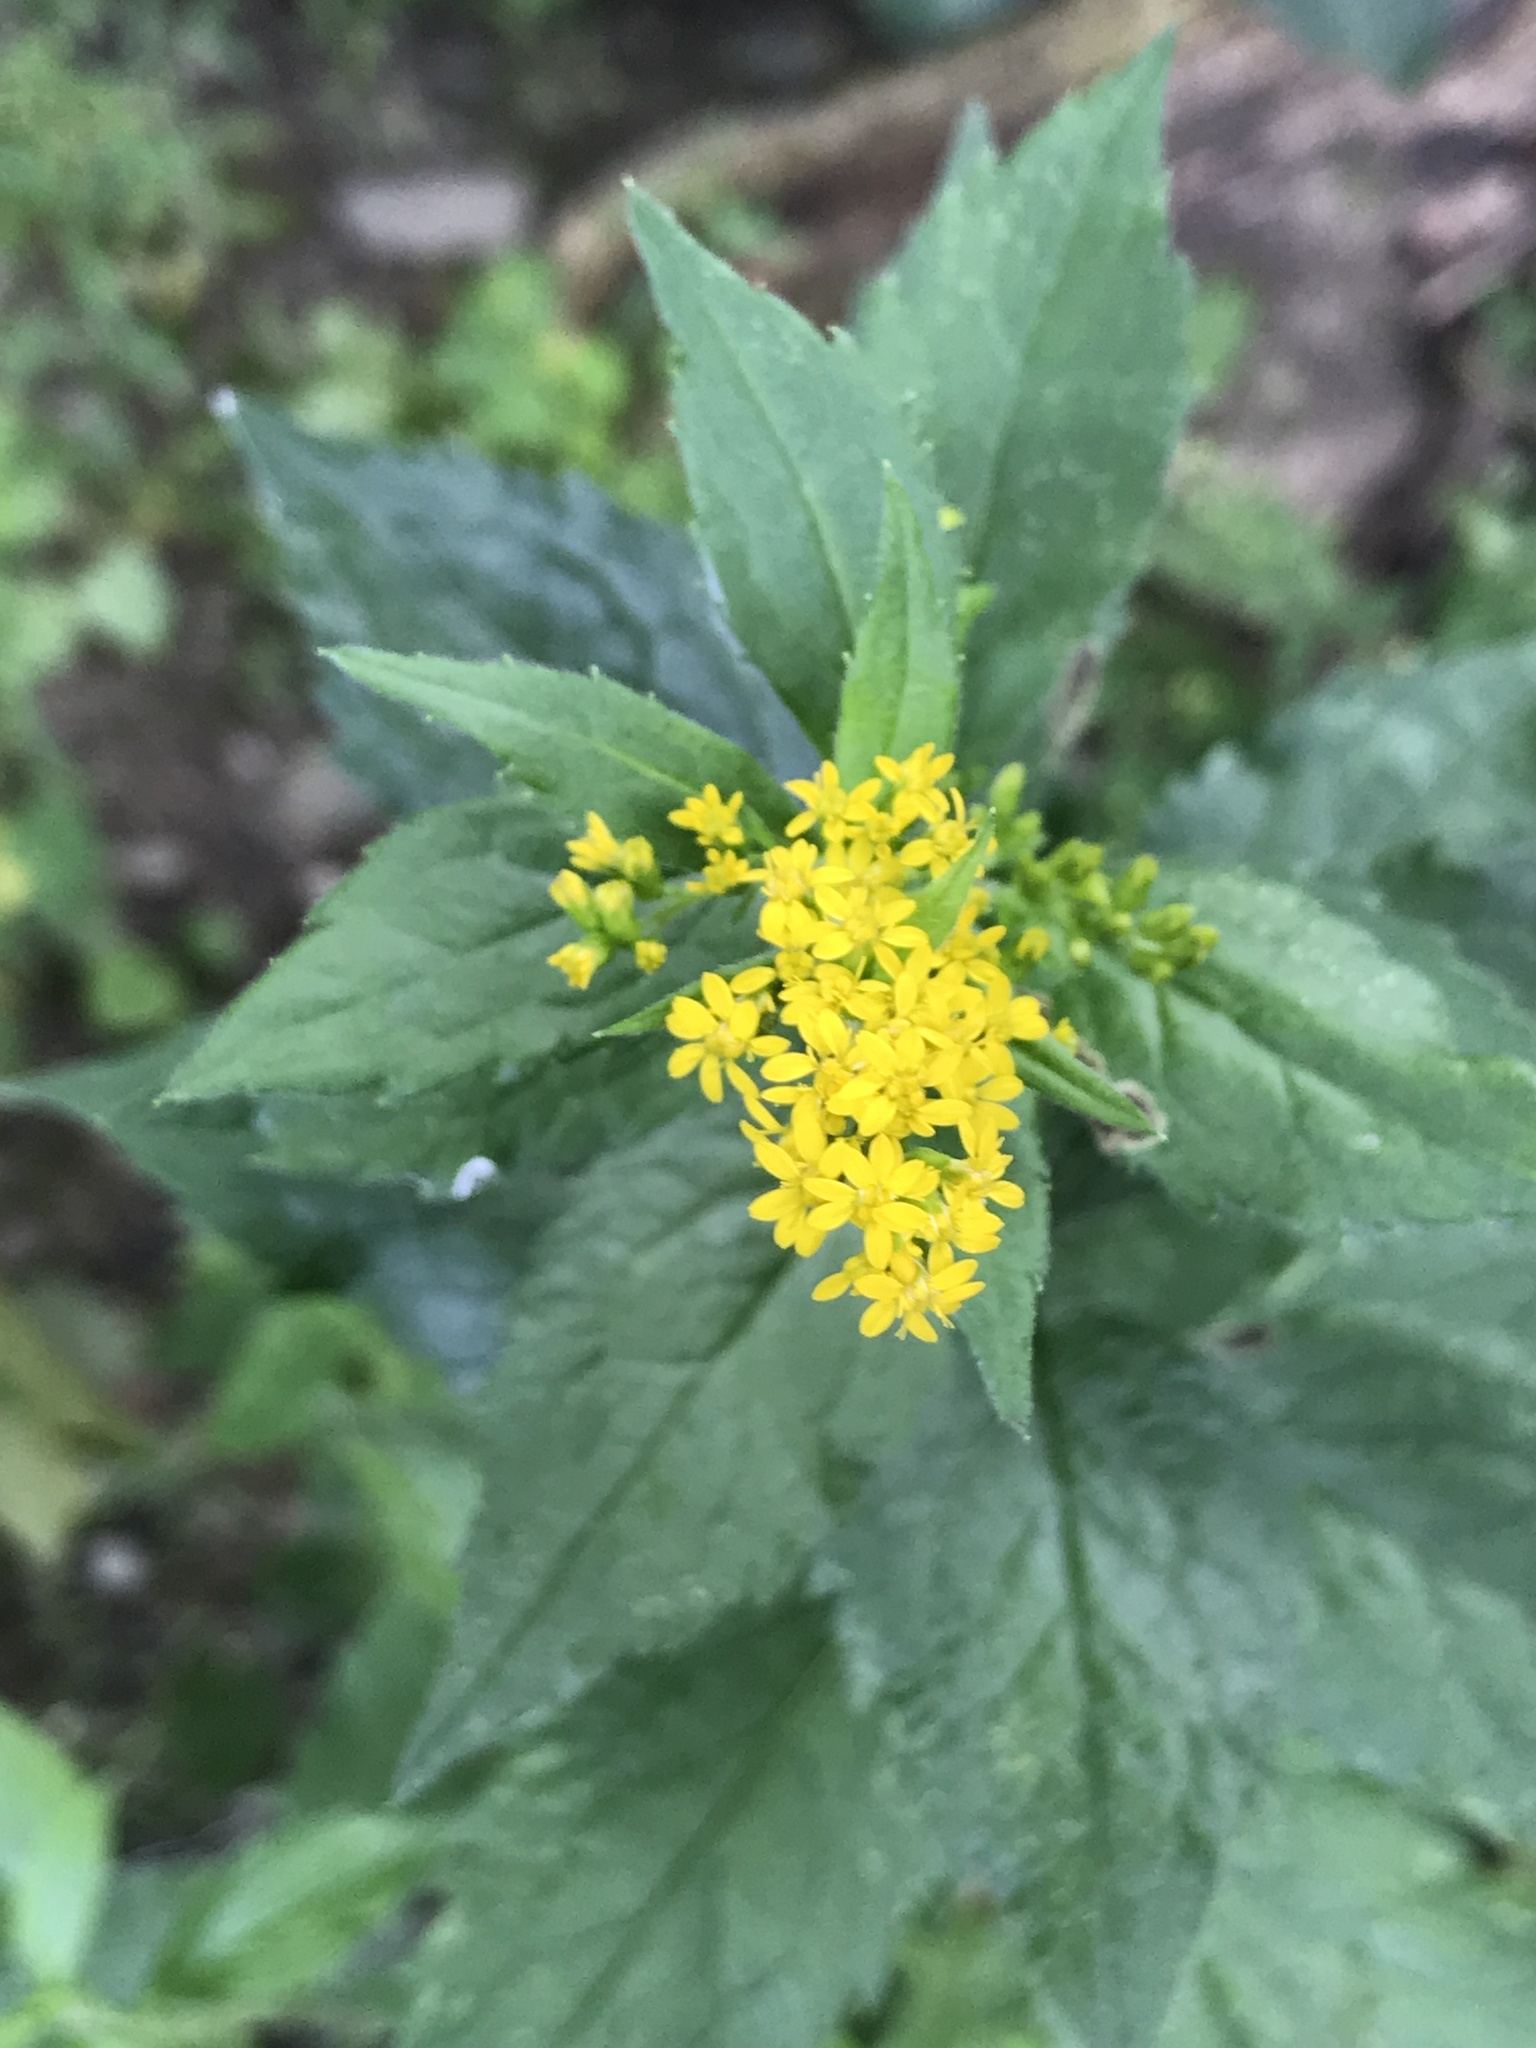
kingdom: Plantae
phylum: Tracheophyta
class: Magnoliopsida
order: Asterales
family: Asteraceae
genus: Solidago
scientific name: Solidago rugosa
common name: Rough-stemmed goldenrod
